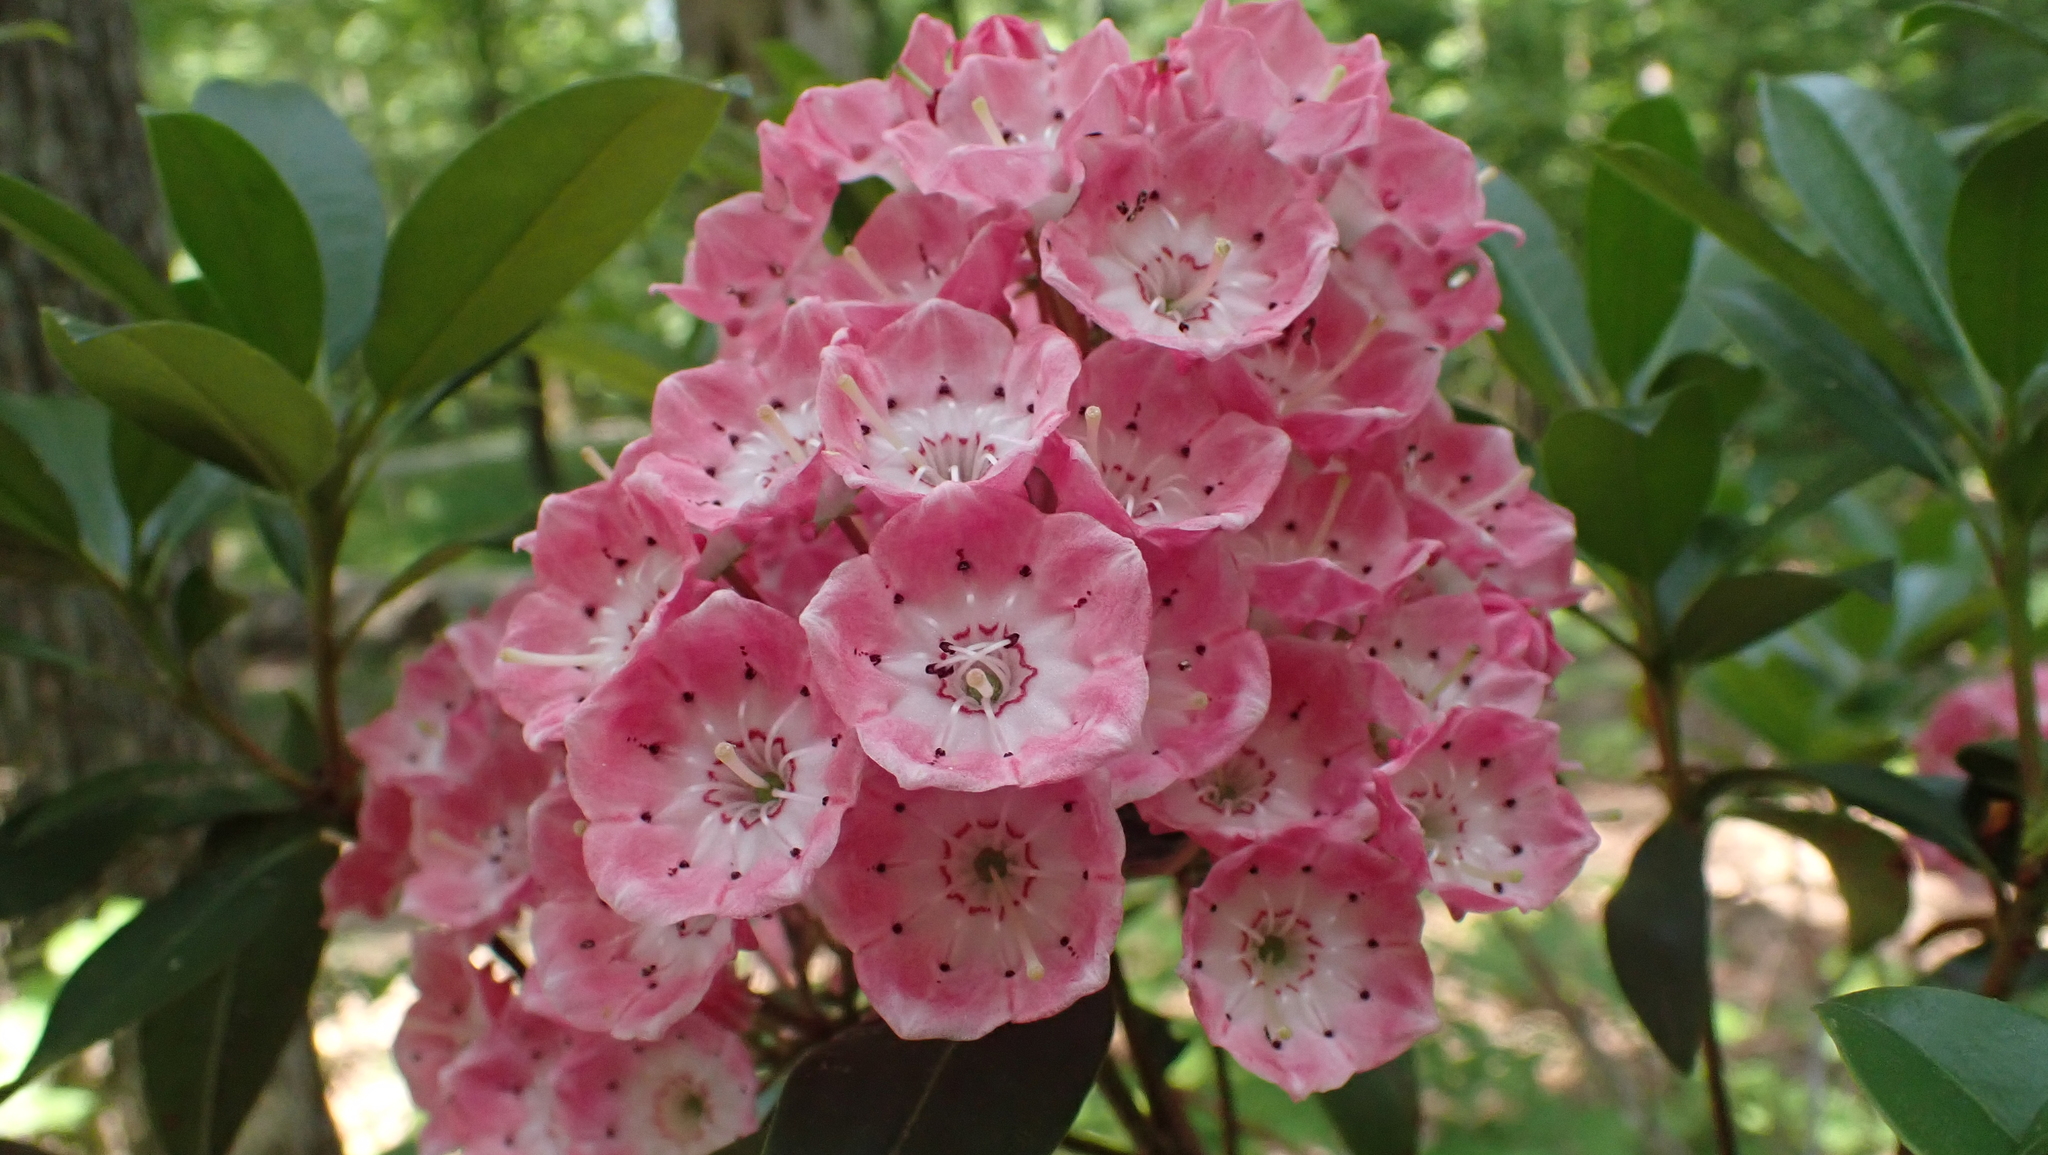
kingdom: Plantae
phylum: Tracheophyta
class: Magnoliopsida
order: Ericales
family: Ericaceae
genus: Kalmia
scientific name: Kalmia latifolia
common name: Mountain-laurel
